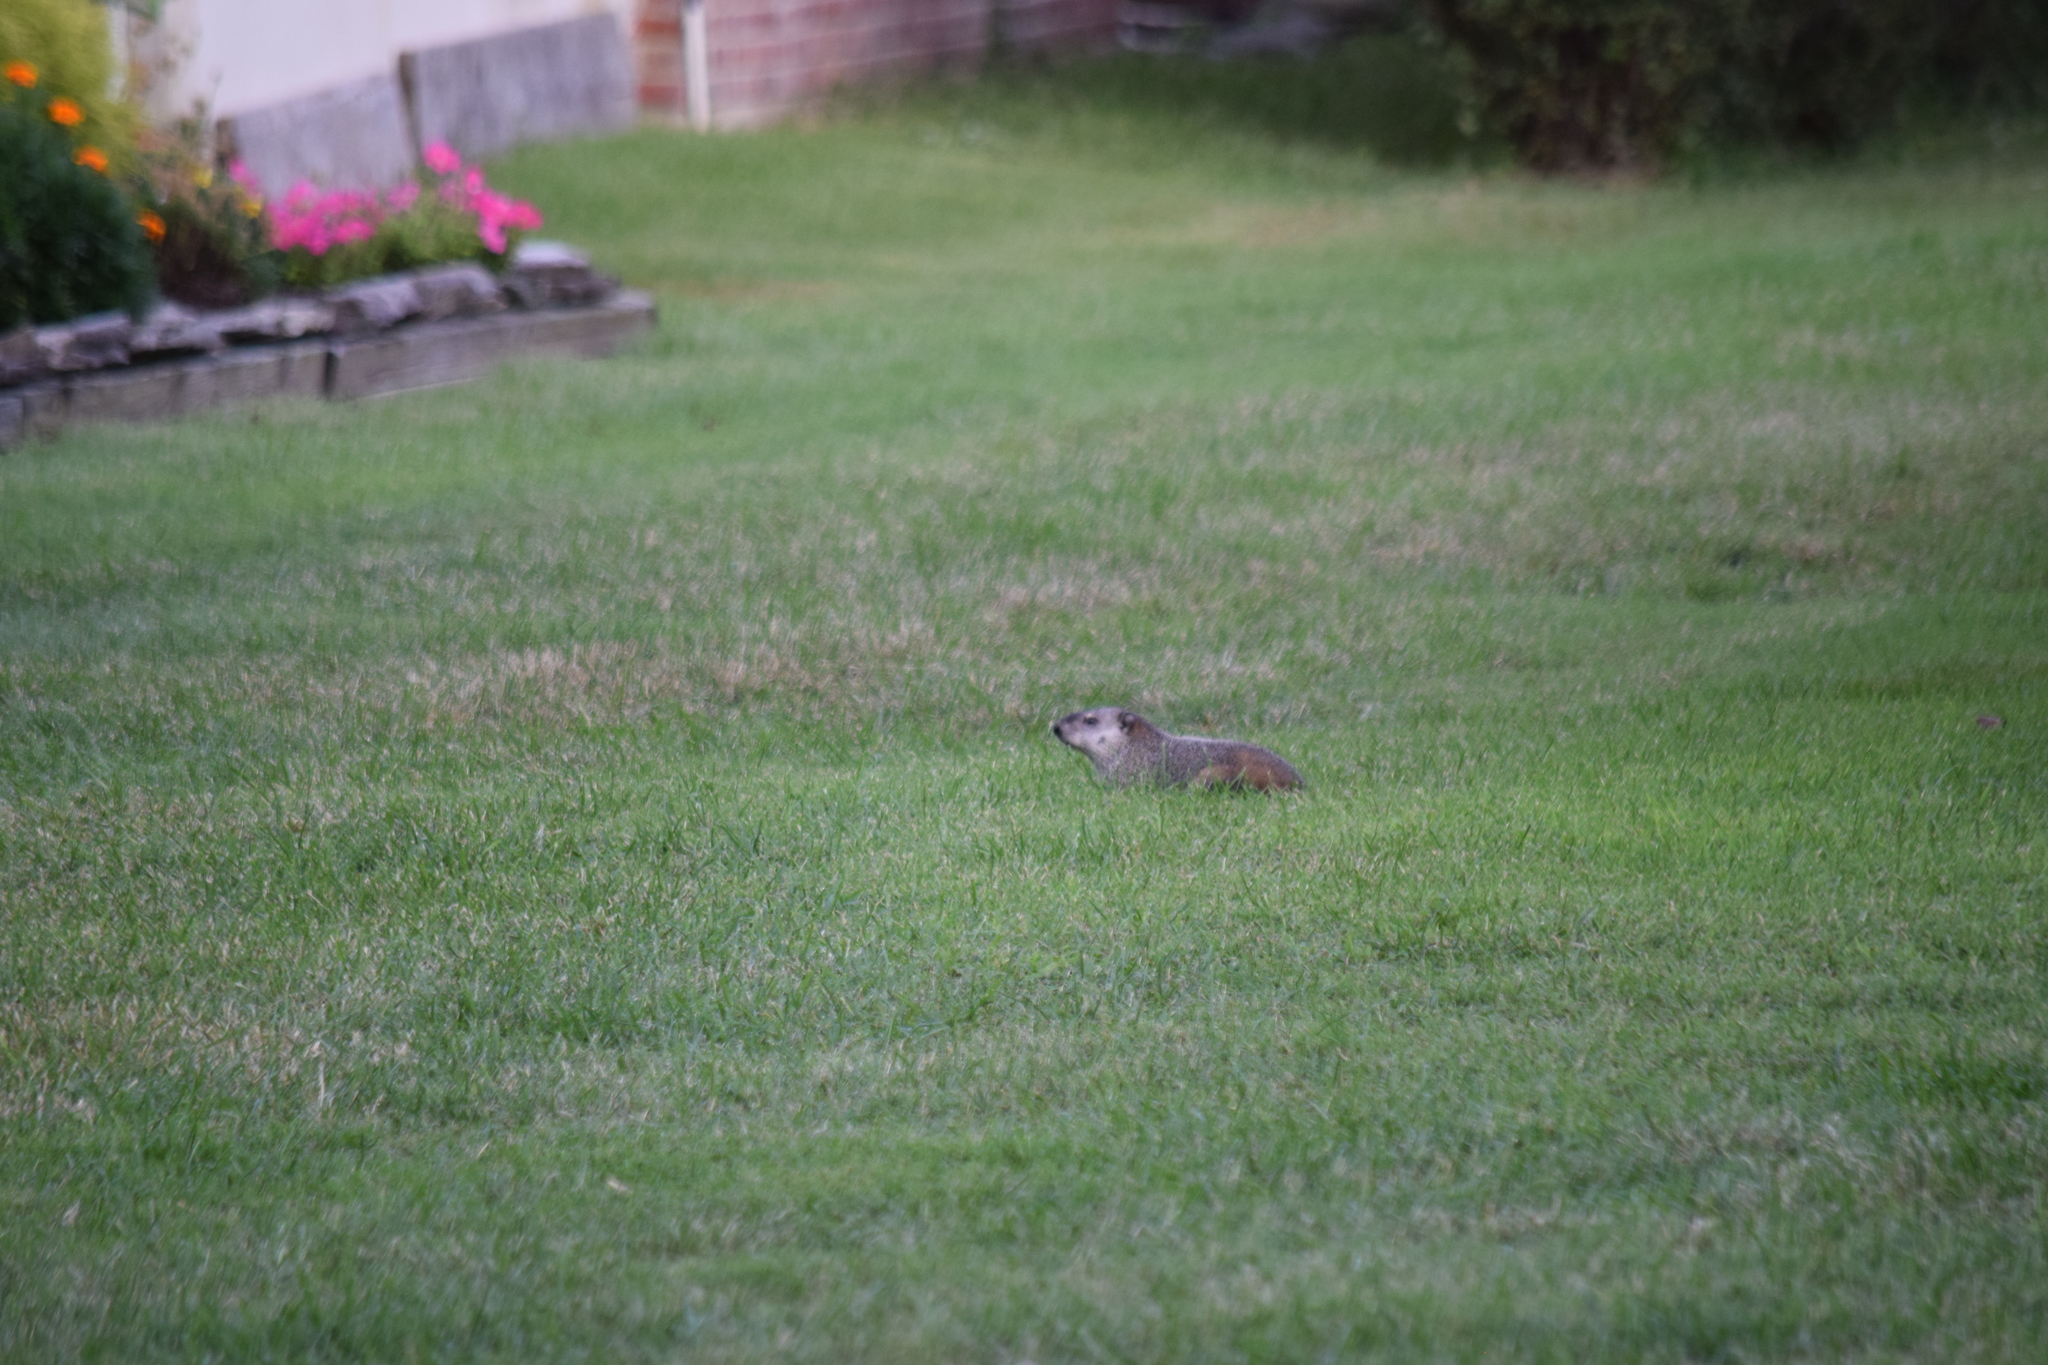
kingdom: Animalia
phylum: Chordata
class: Mammalia
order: Rodentia
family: Sciuridae
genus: Marmota
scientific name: Marmota monax
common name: Groundhog
